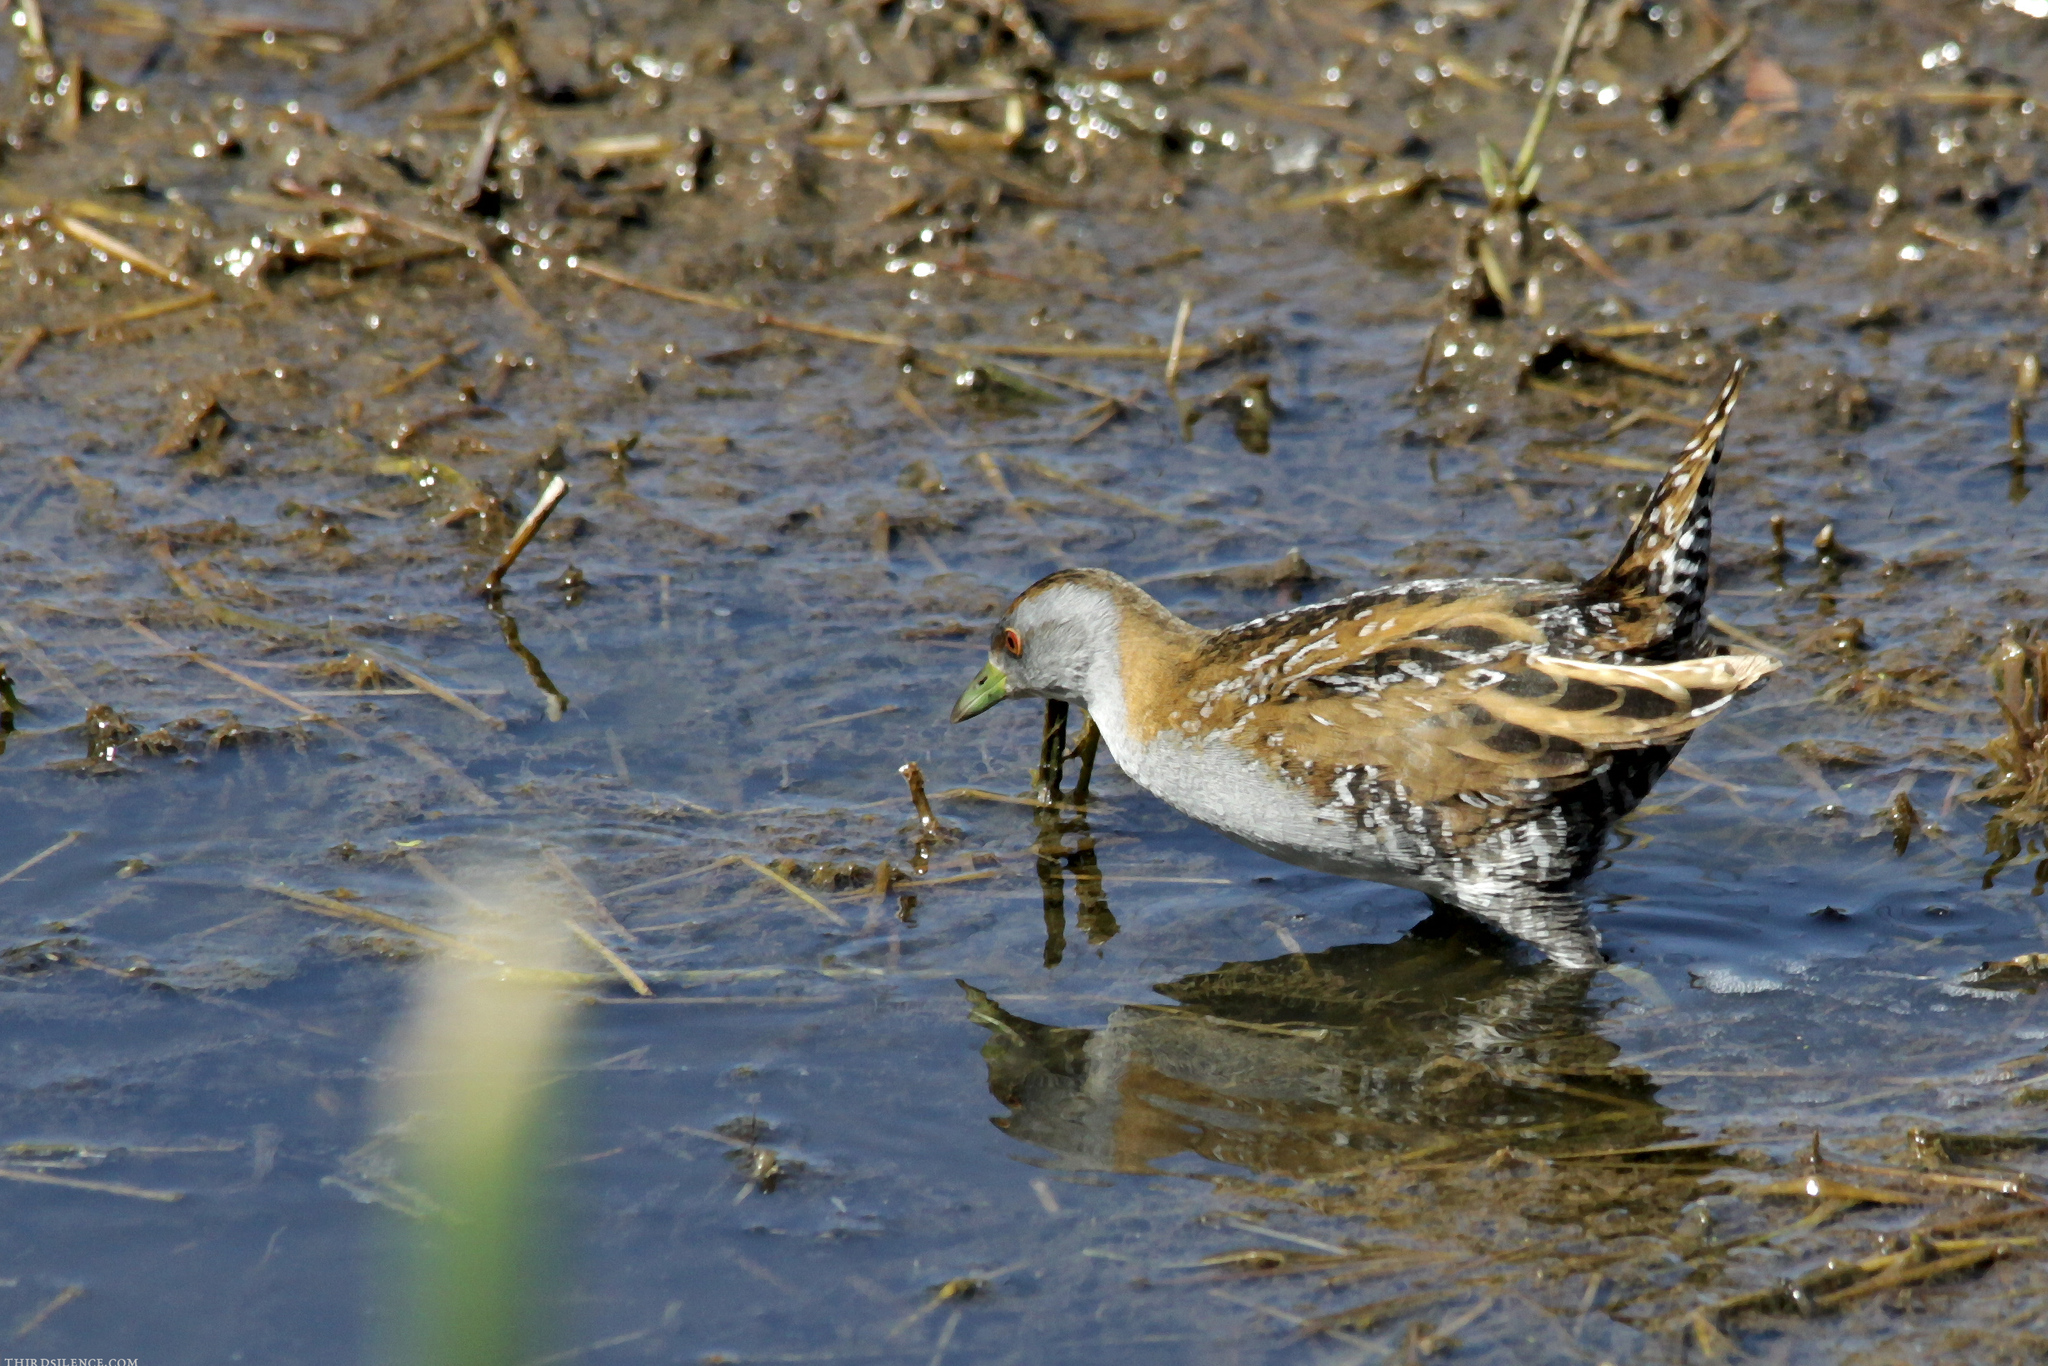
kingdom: Animalia
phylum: Chordata
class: Aves
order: Gruiformes
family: Rallidae
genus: Porzana
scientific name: Porzana pusilla
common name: Baillon's crake
